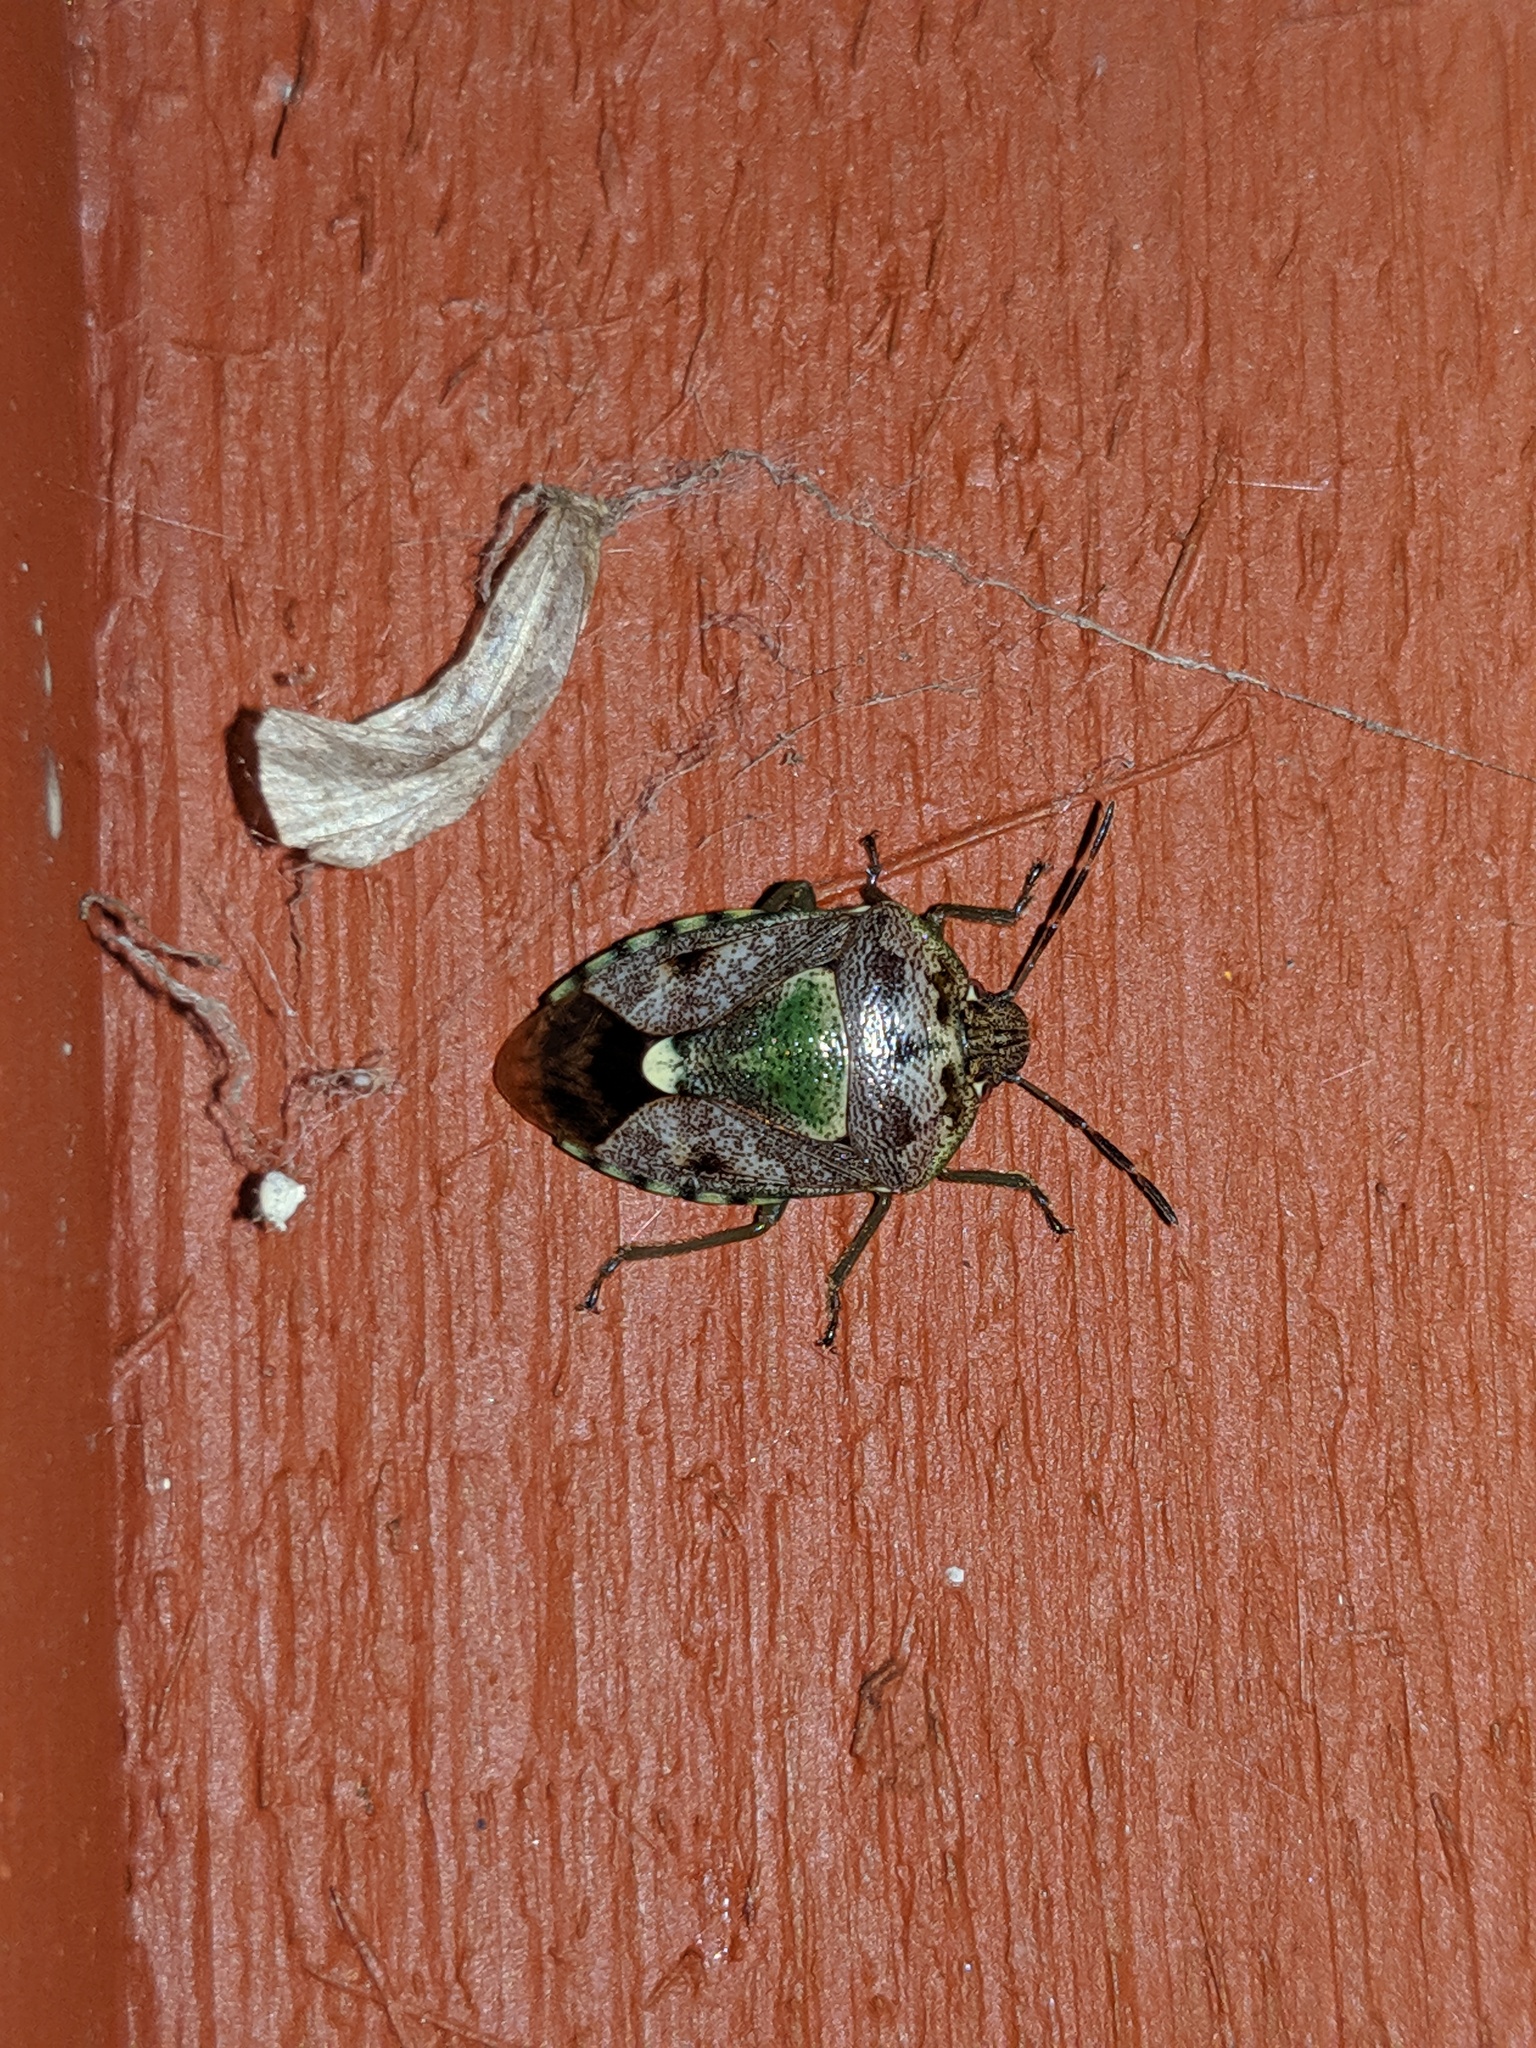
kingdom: Animalia
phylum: Arthropoda
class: Insecta
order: Hemiptera
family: Pentatomidae
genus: Banasa
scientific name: Banasa sordida
